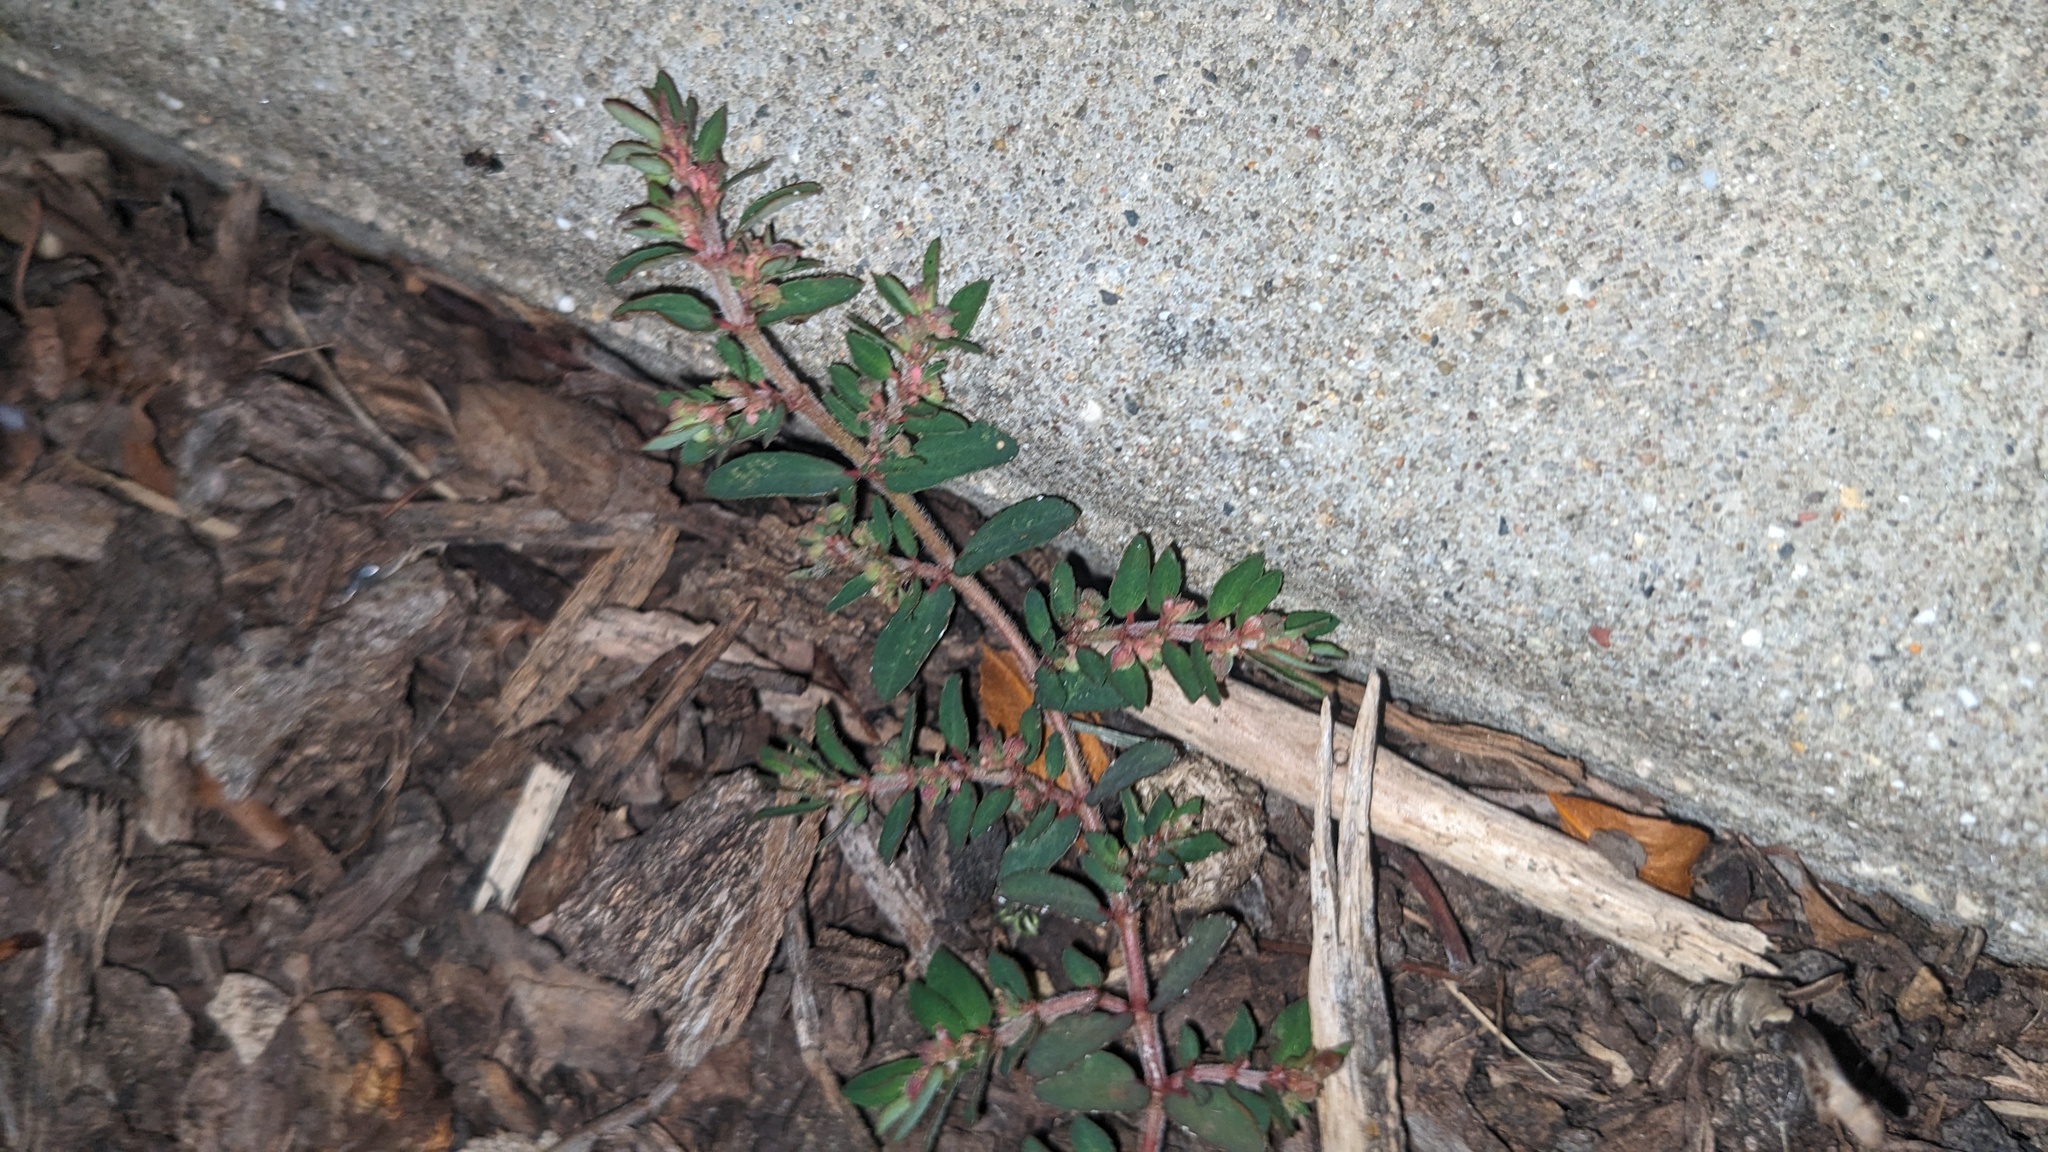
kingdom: Plantae
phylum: Tracheophyta
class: Magnoliopsida
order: Malpighiales
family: Euphorbiaceae
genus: Euphorbia
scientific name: Euphorbia maculata
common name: Spotted spurge
